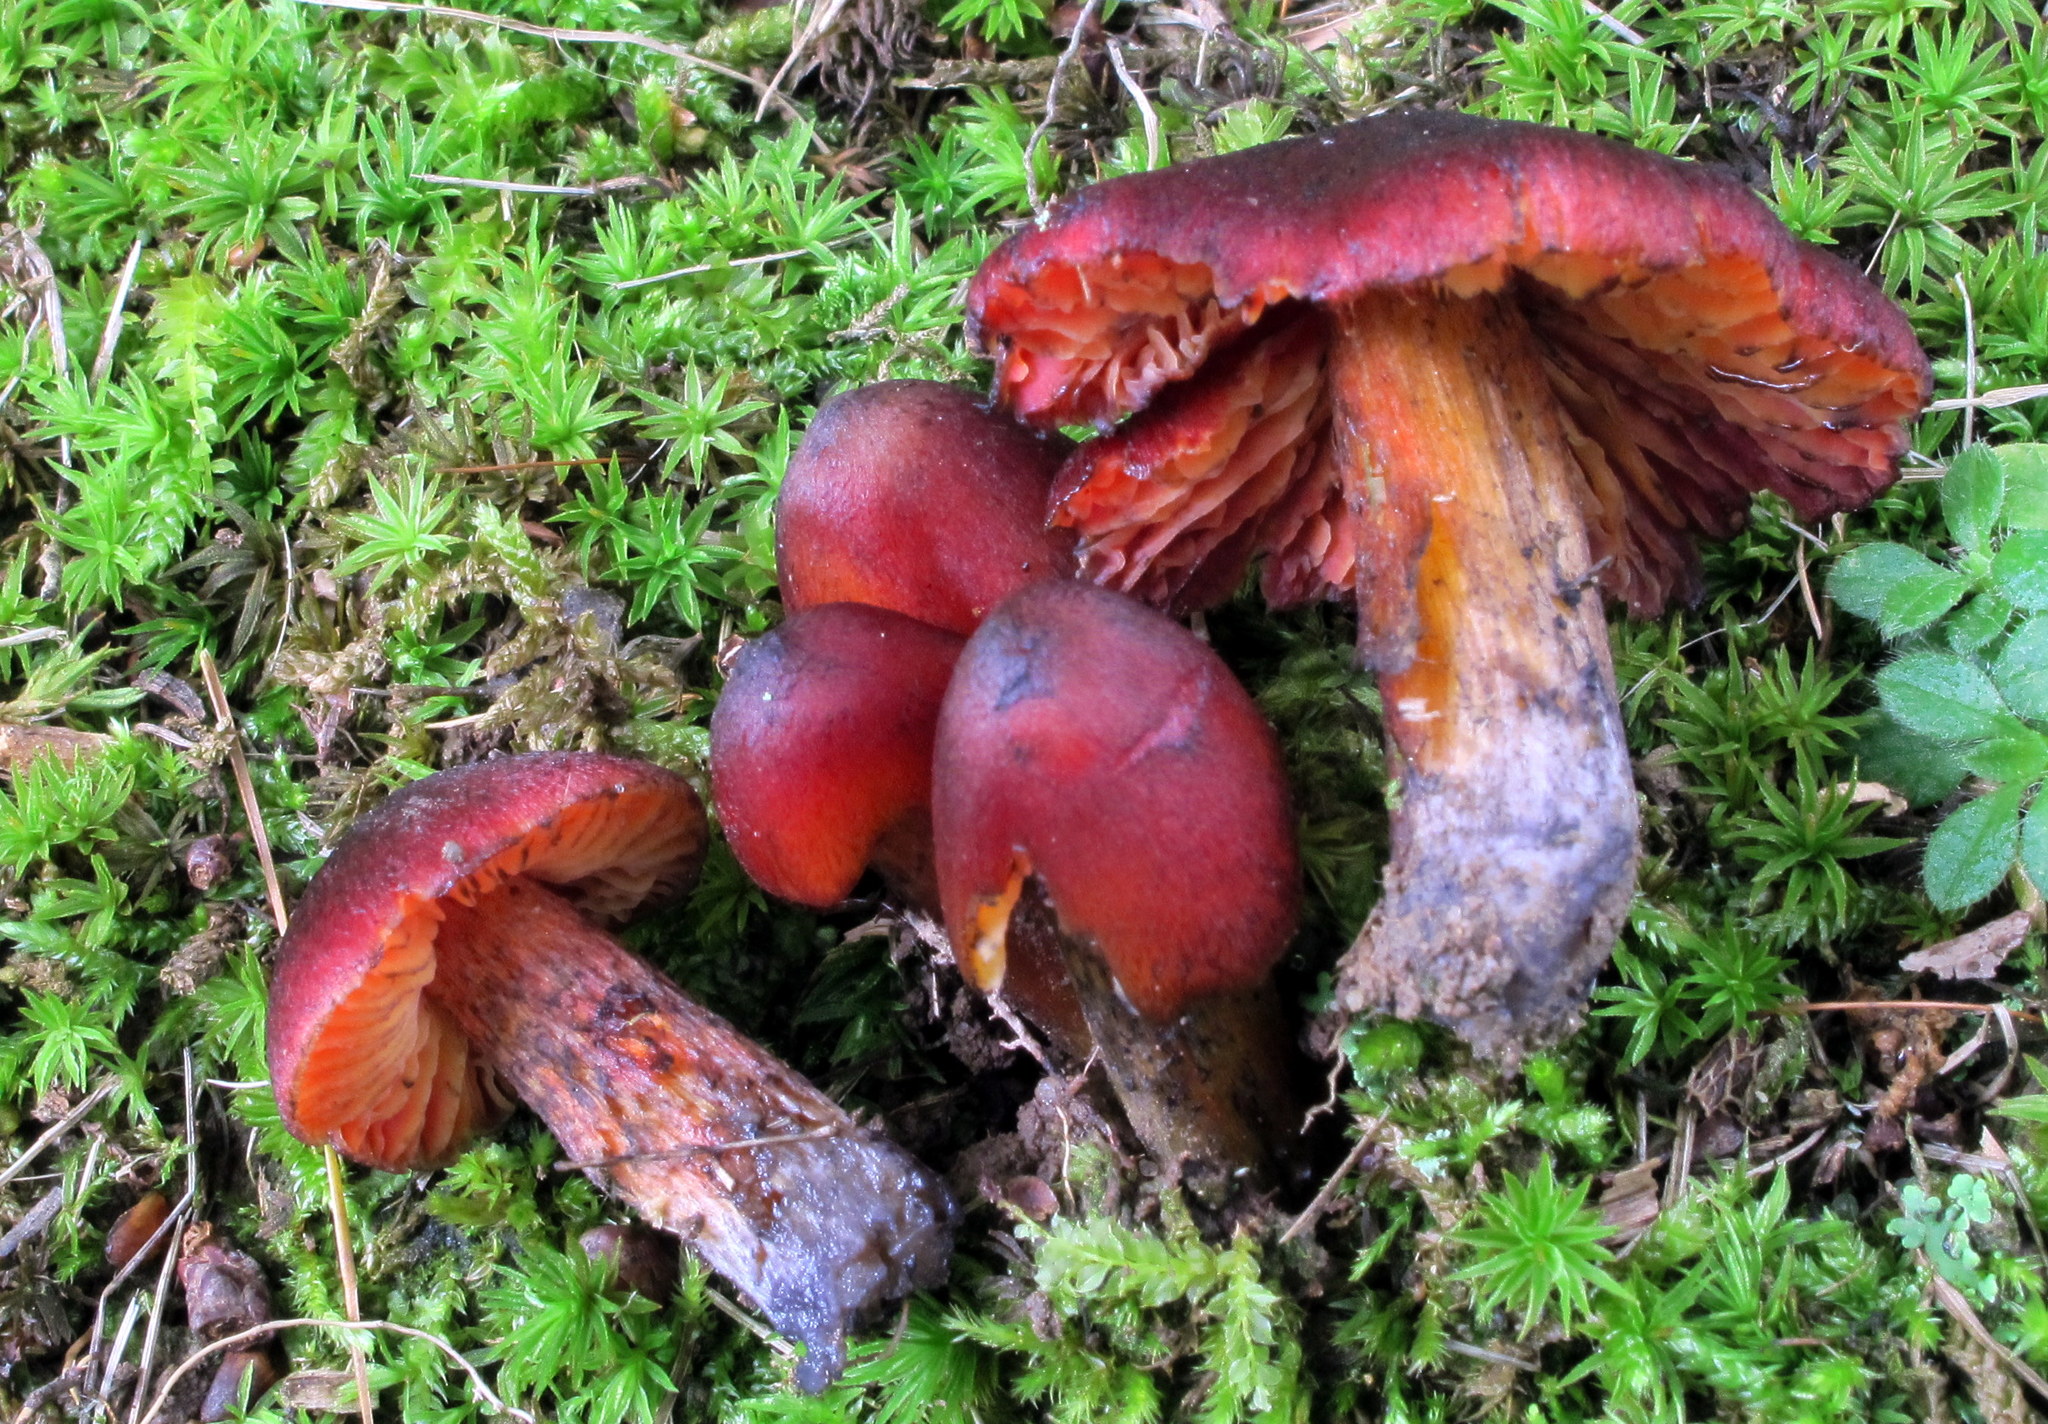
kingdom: Fungi
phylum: Basidiomycota
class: Agaricomycetes
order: Agaricales
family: Hygrophoraceae
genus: Hygrocybe
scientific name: Hygrocybe conica
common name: Blackening wax-cap
